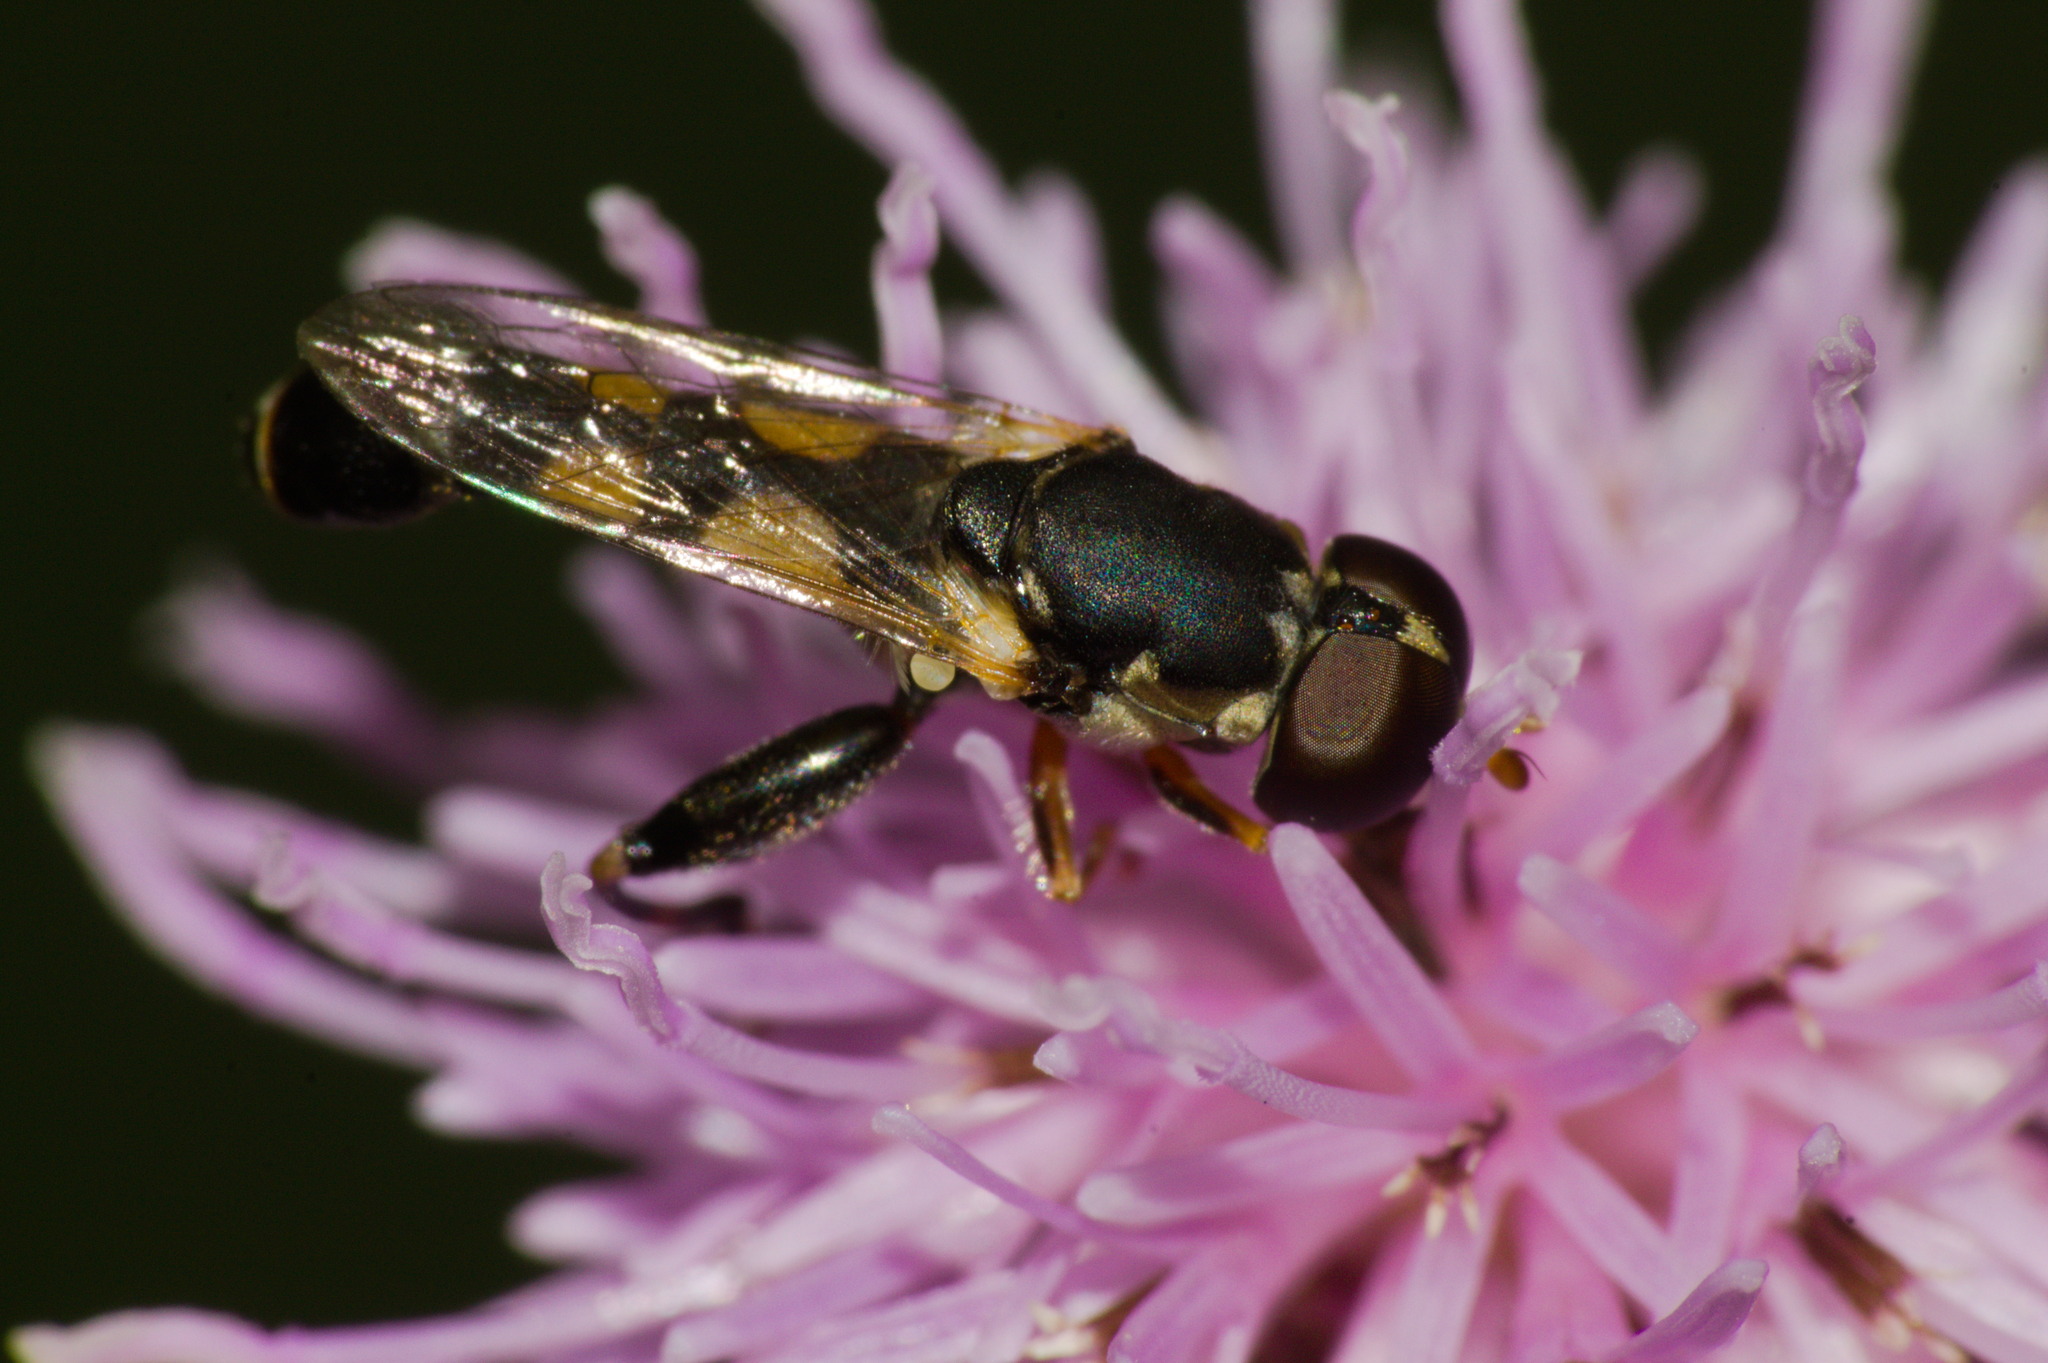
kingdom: Animalia
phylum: Arthropoda
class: Insecta
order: Diptera
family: Syrphidae
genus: Syritta
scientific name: Syritta pipiens
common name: Hover fly
